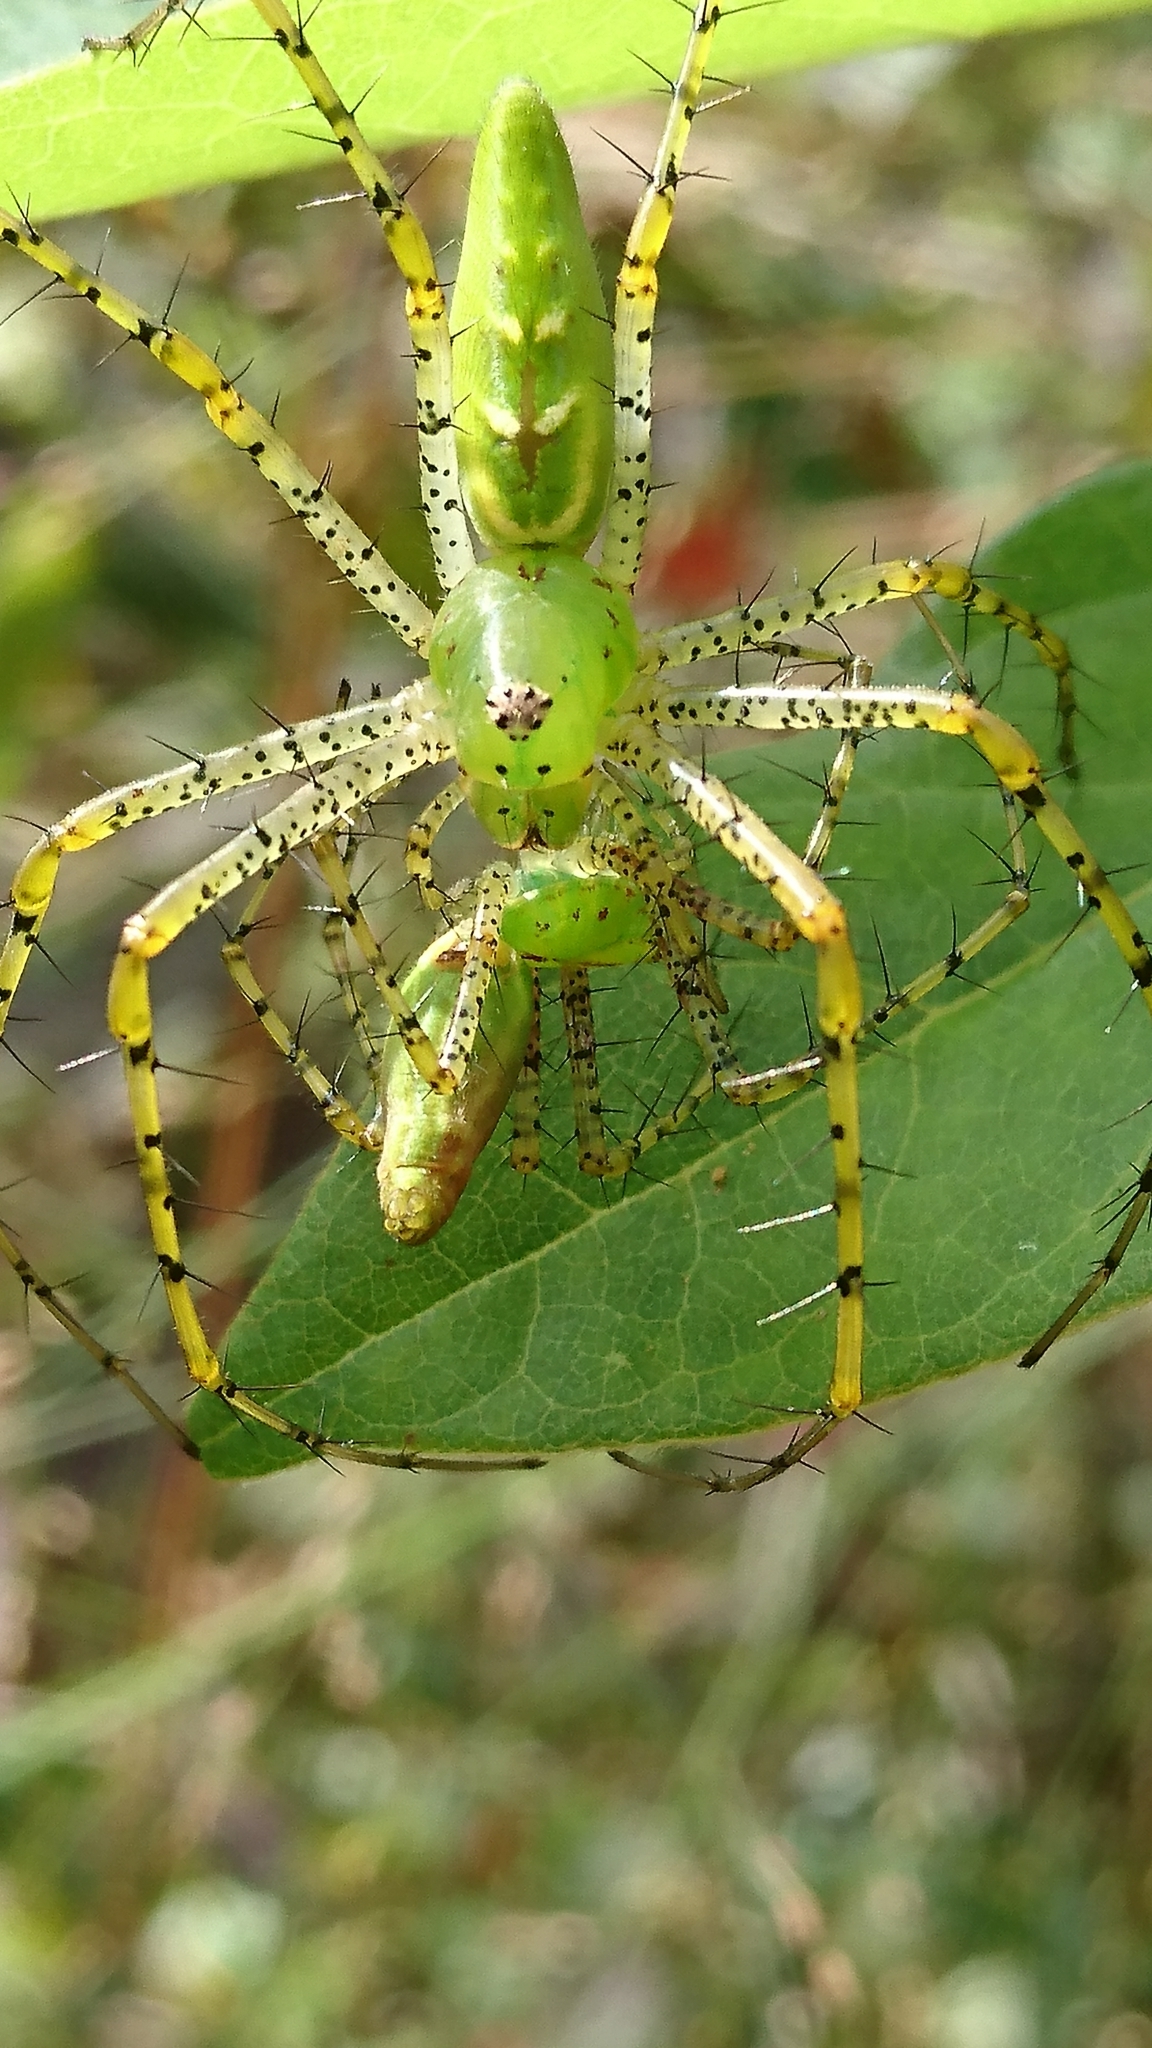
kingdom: Animalia
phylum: Arthropoda
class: Arachnida
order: Araneae
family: Oxyopidae
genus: Peucetia
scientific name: Peucetia viridans
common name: Lynx spiders
